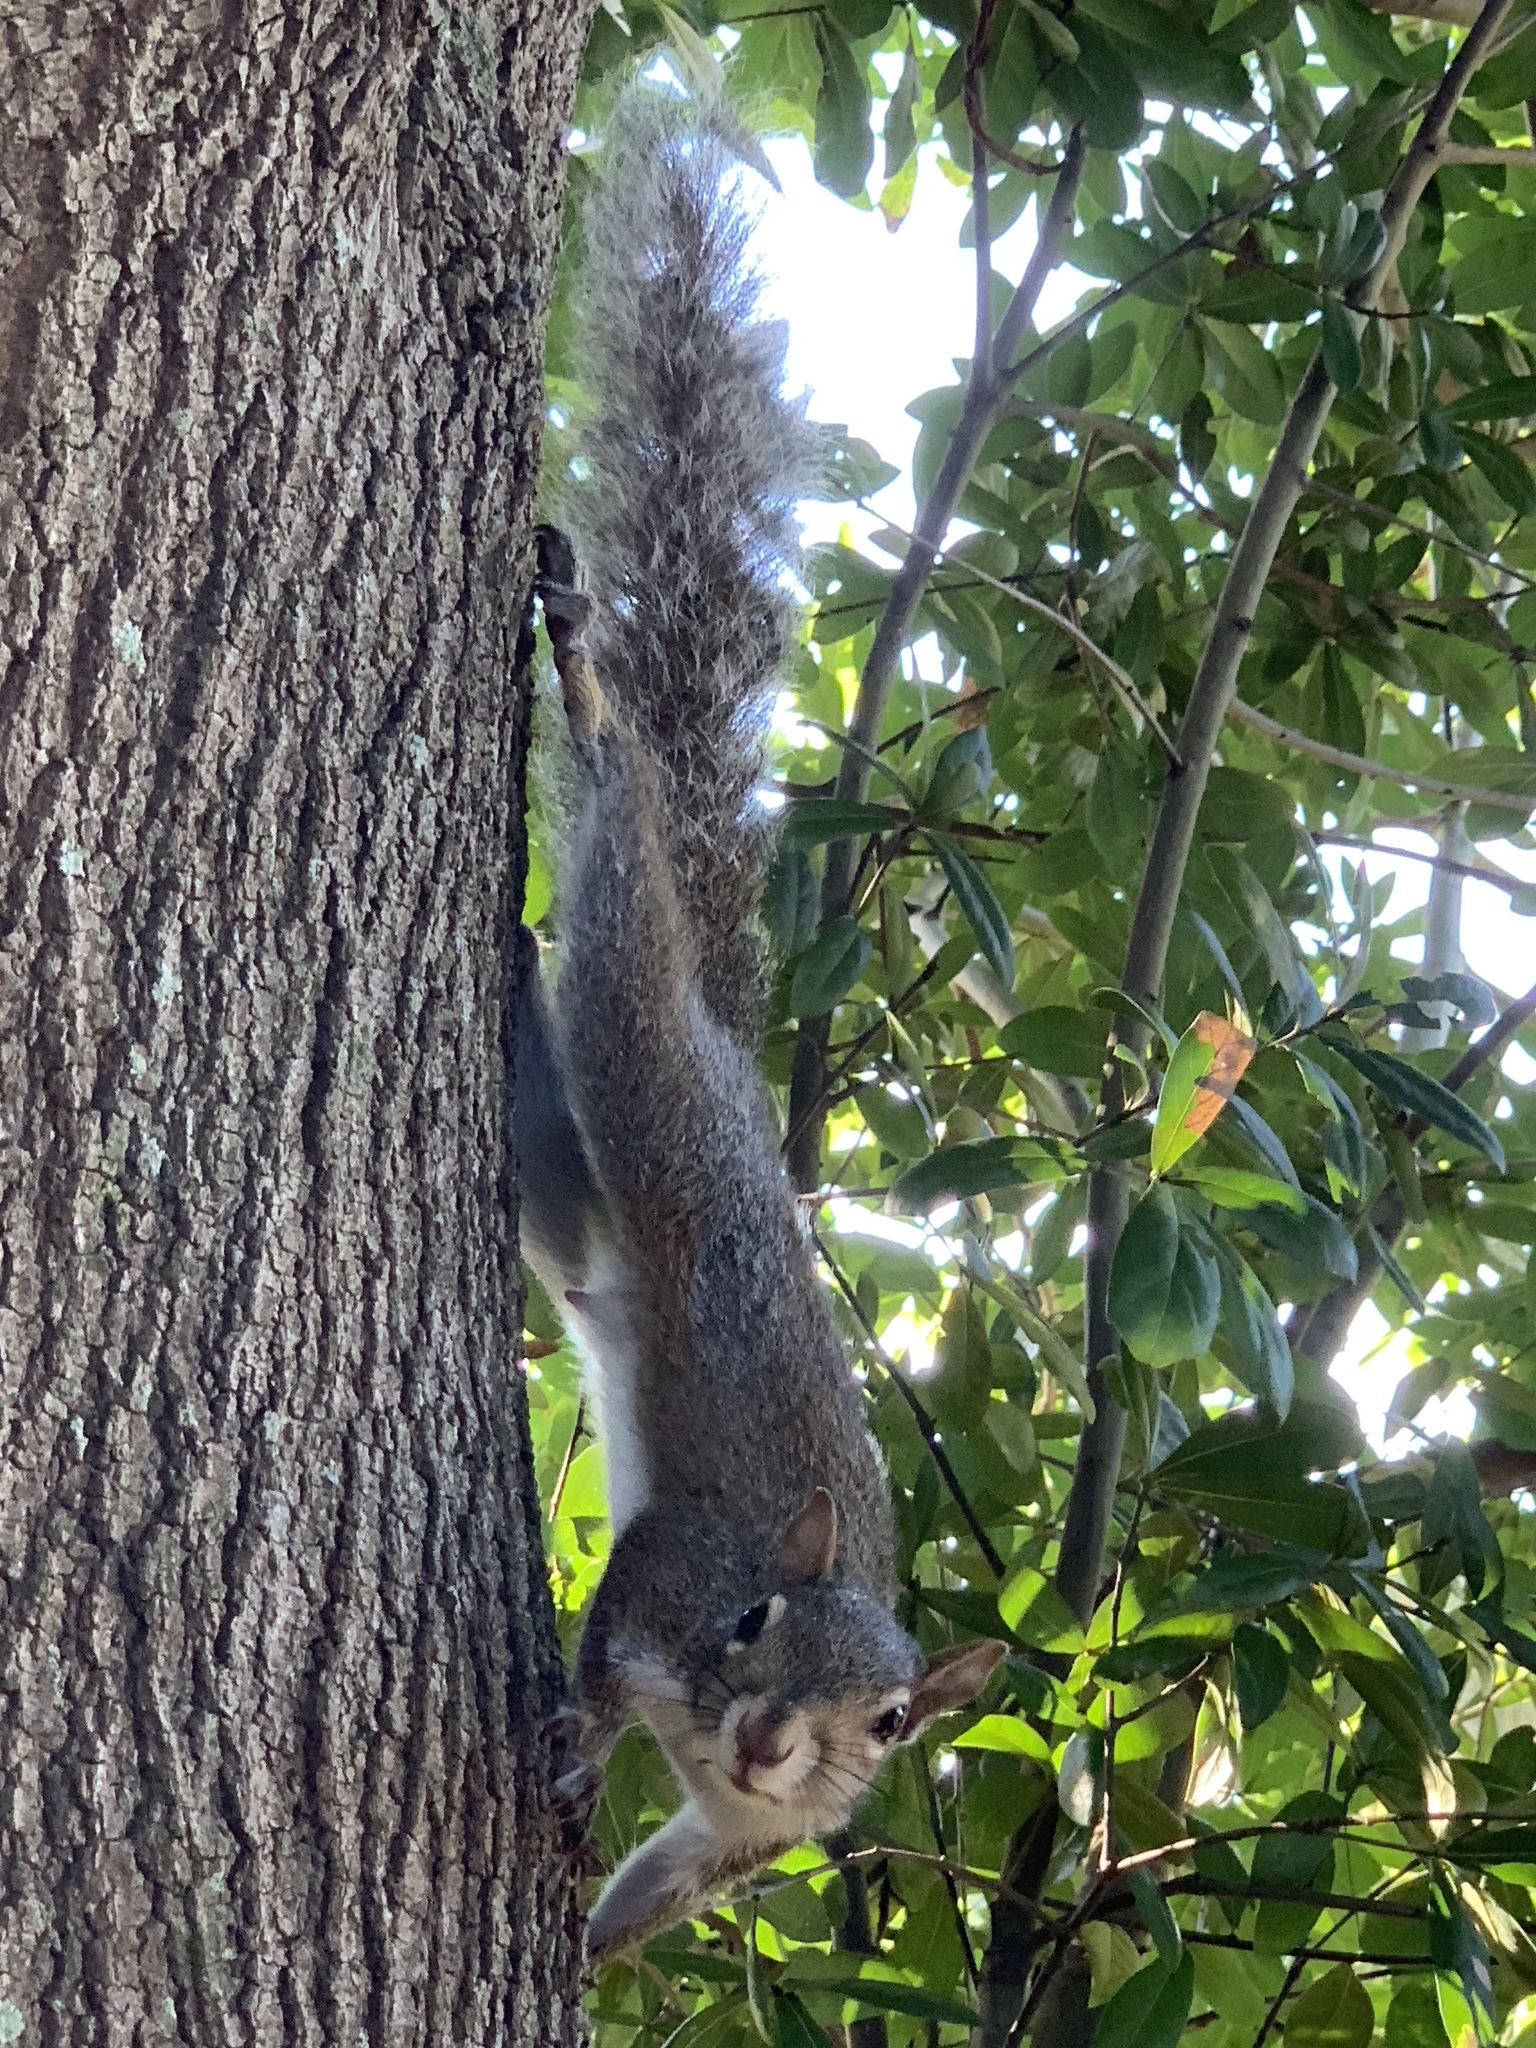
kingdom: Animalia
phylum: Chordata
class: Mammalia
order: Rodentia
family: Sciuridae
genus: Sciurus
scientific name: Sciurus carolinensis
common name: Eastern gray squirrel
